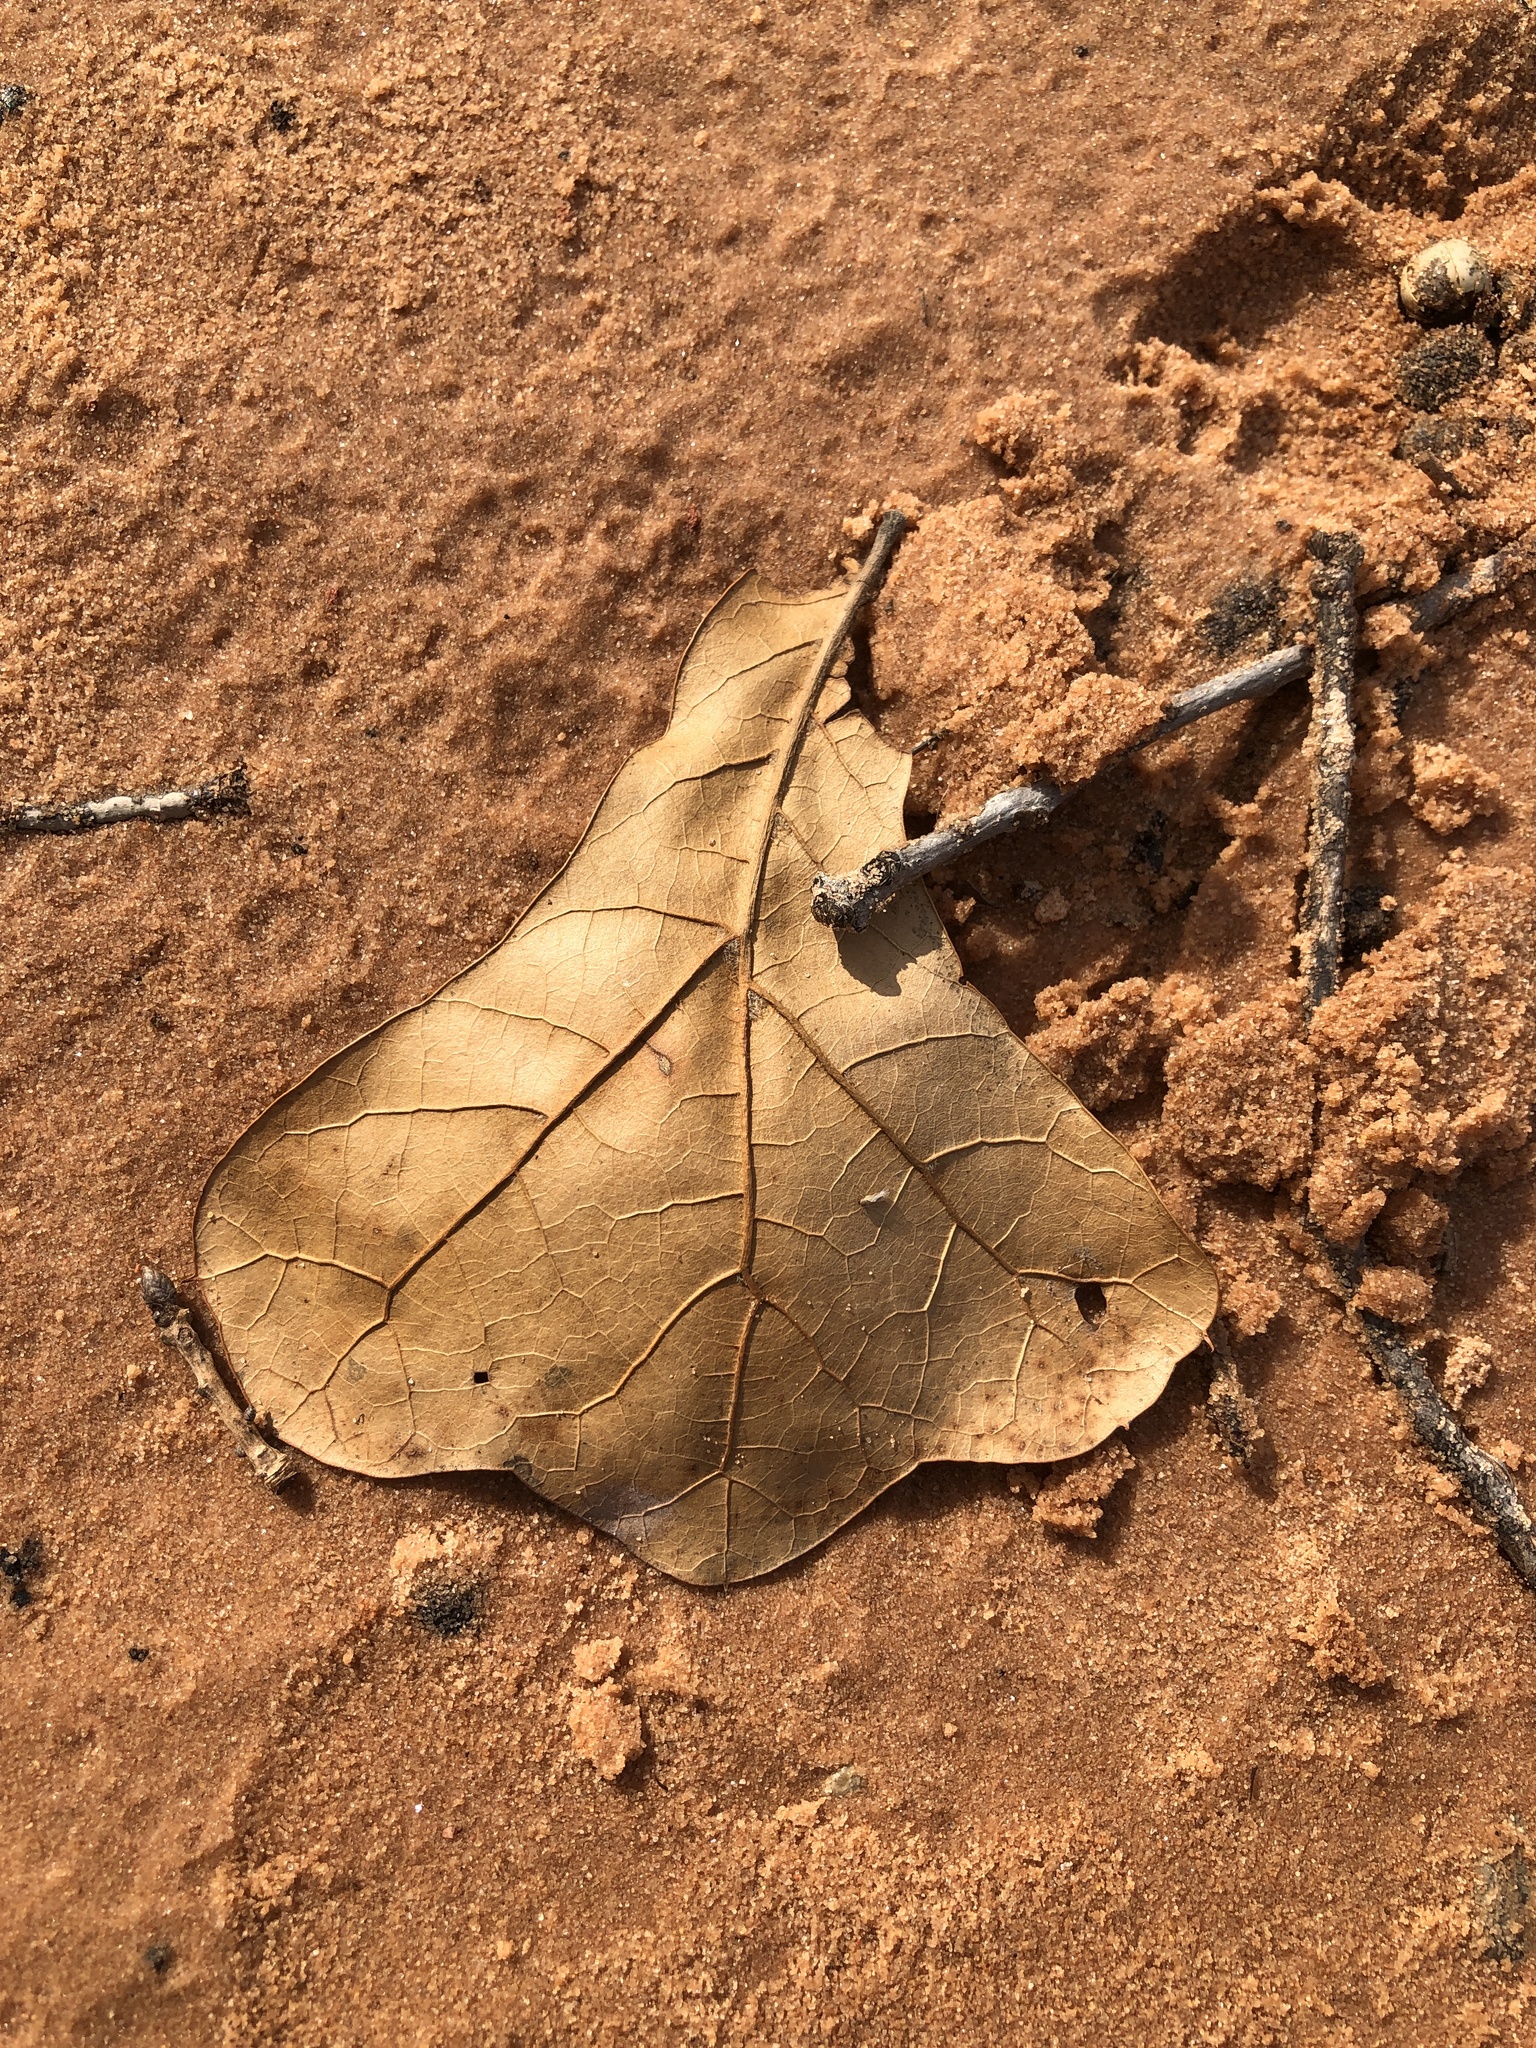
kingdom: Plantae
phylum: Tracheophyta
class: Magnoliopsida
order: Fagales
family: Fagaceae
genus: Quercus
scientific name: Quercus marilandica
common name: Blackjack oak
